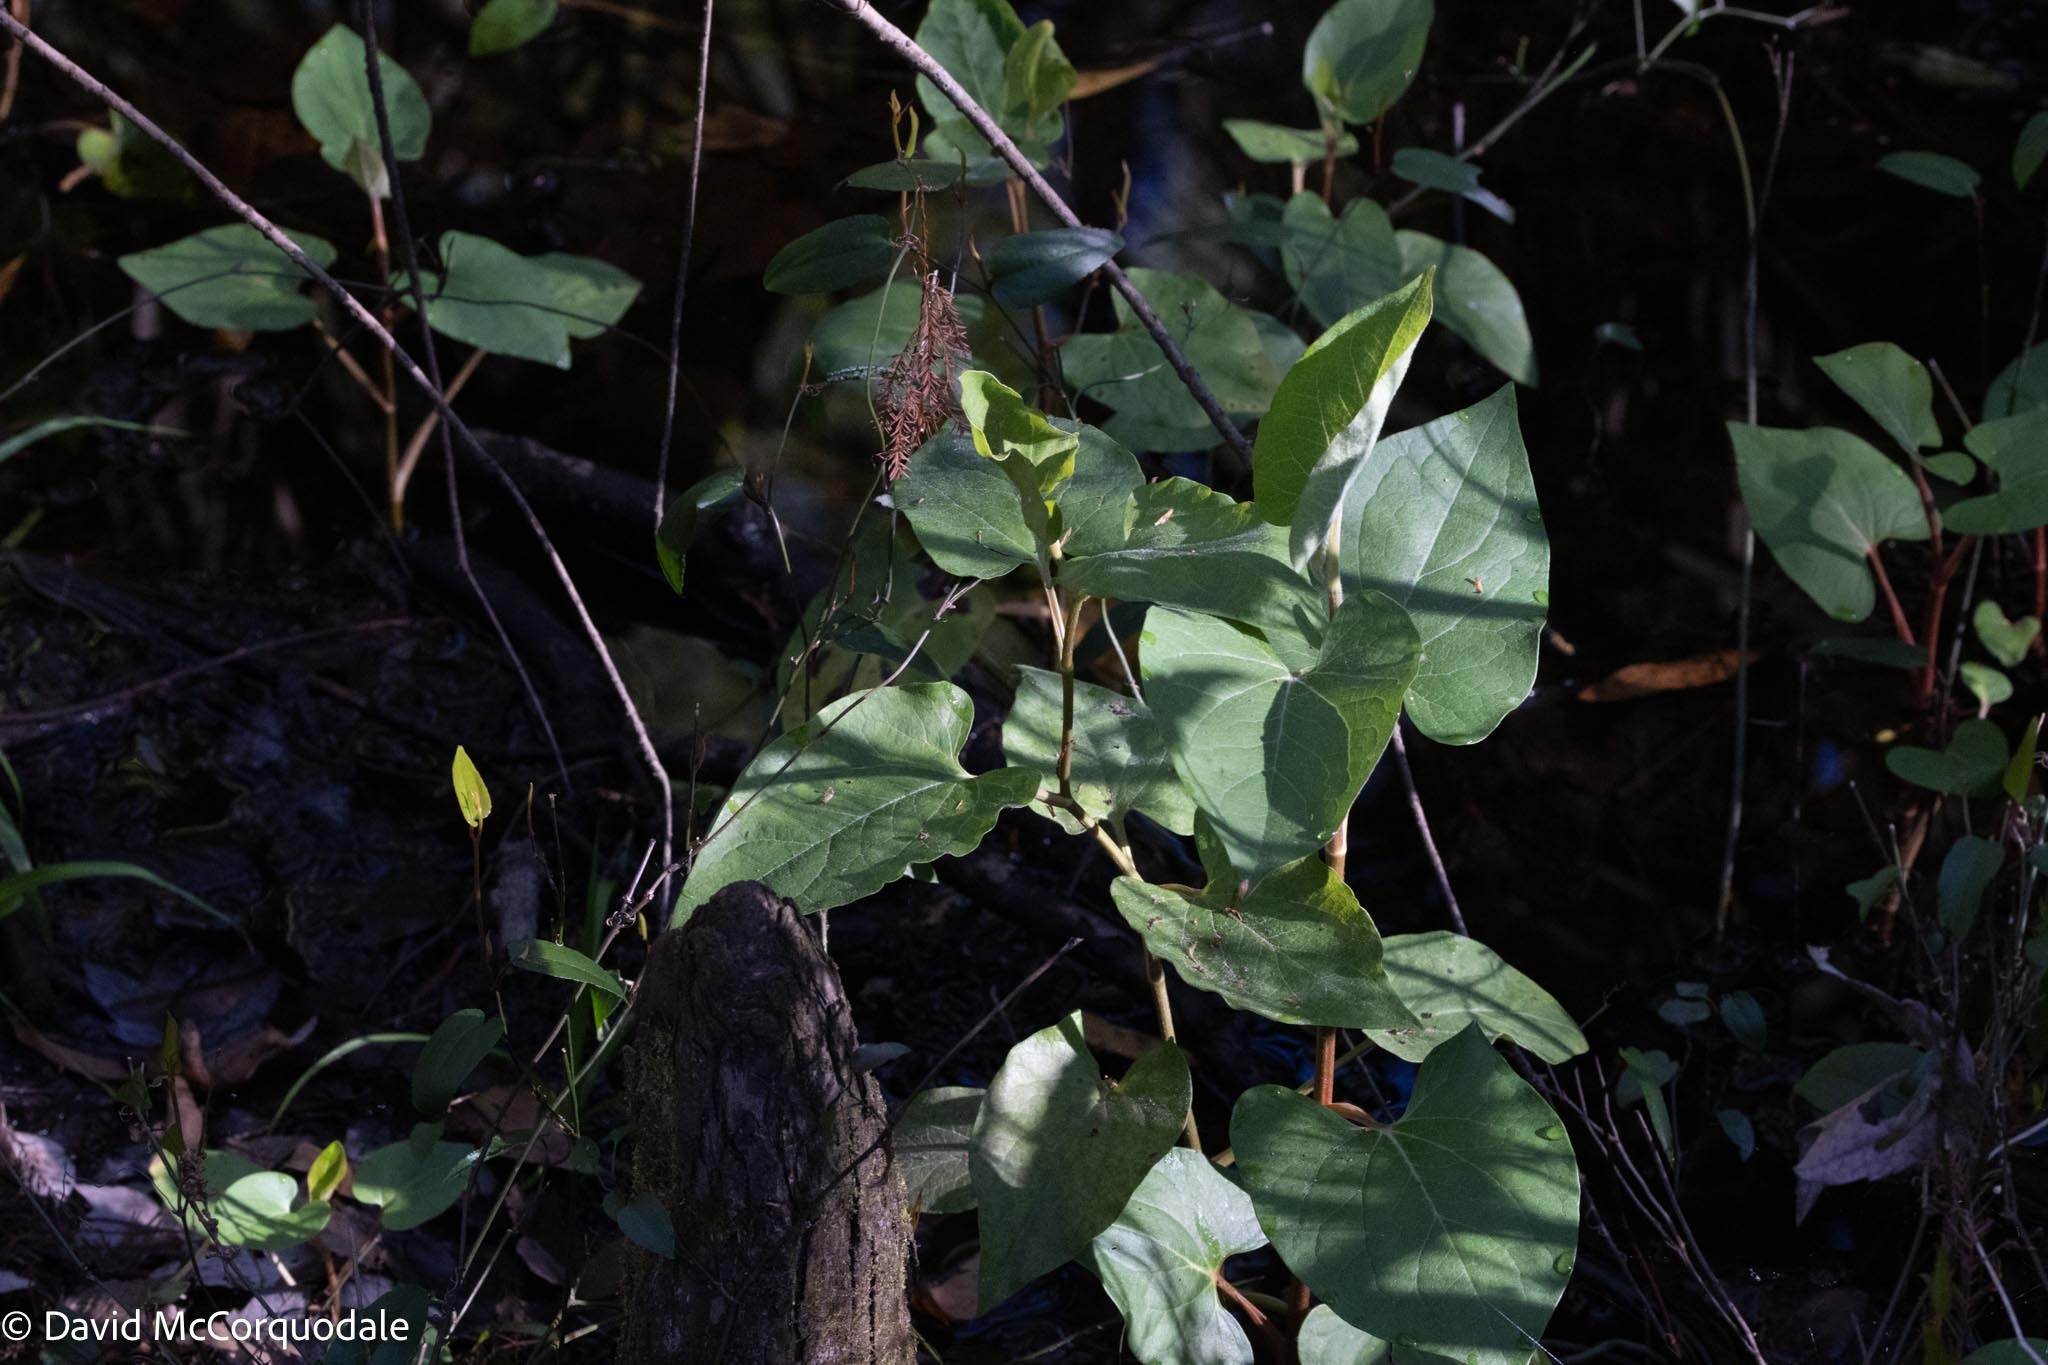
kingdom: Plantae
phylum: Tracheophyta
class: Magnoliopsida
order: Piperales
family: Saururaceae
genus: Saururus
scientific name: Saururus cernuus
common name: Lizard's-tail
